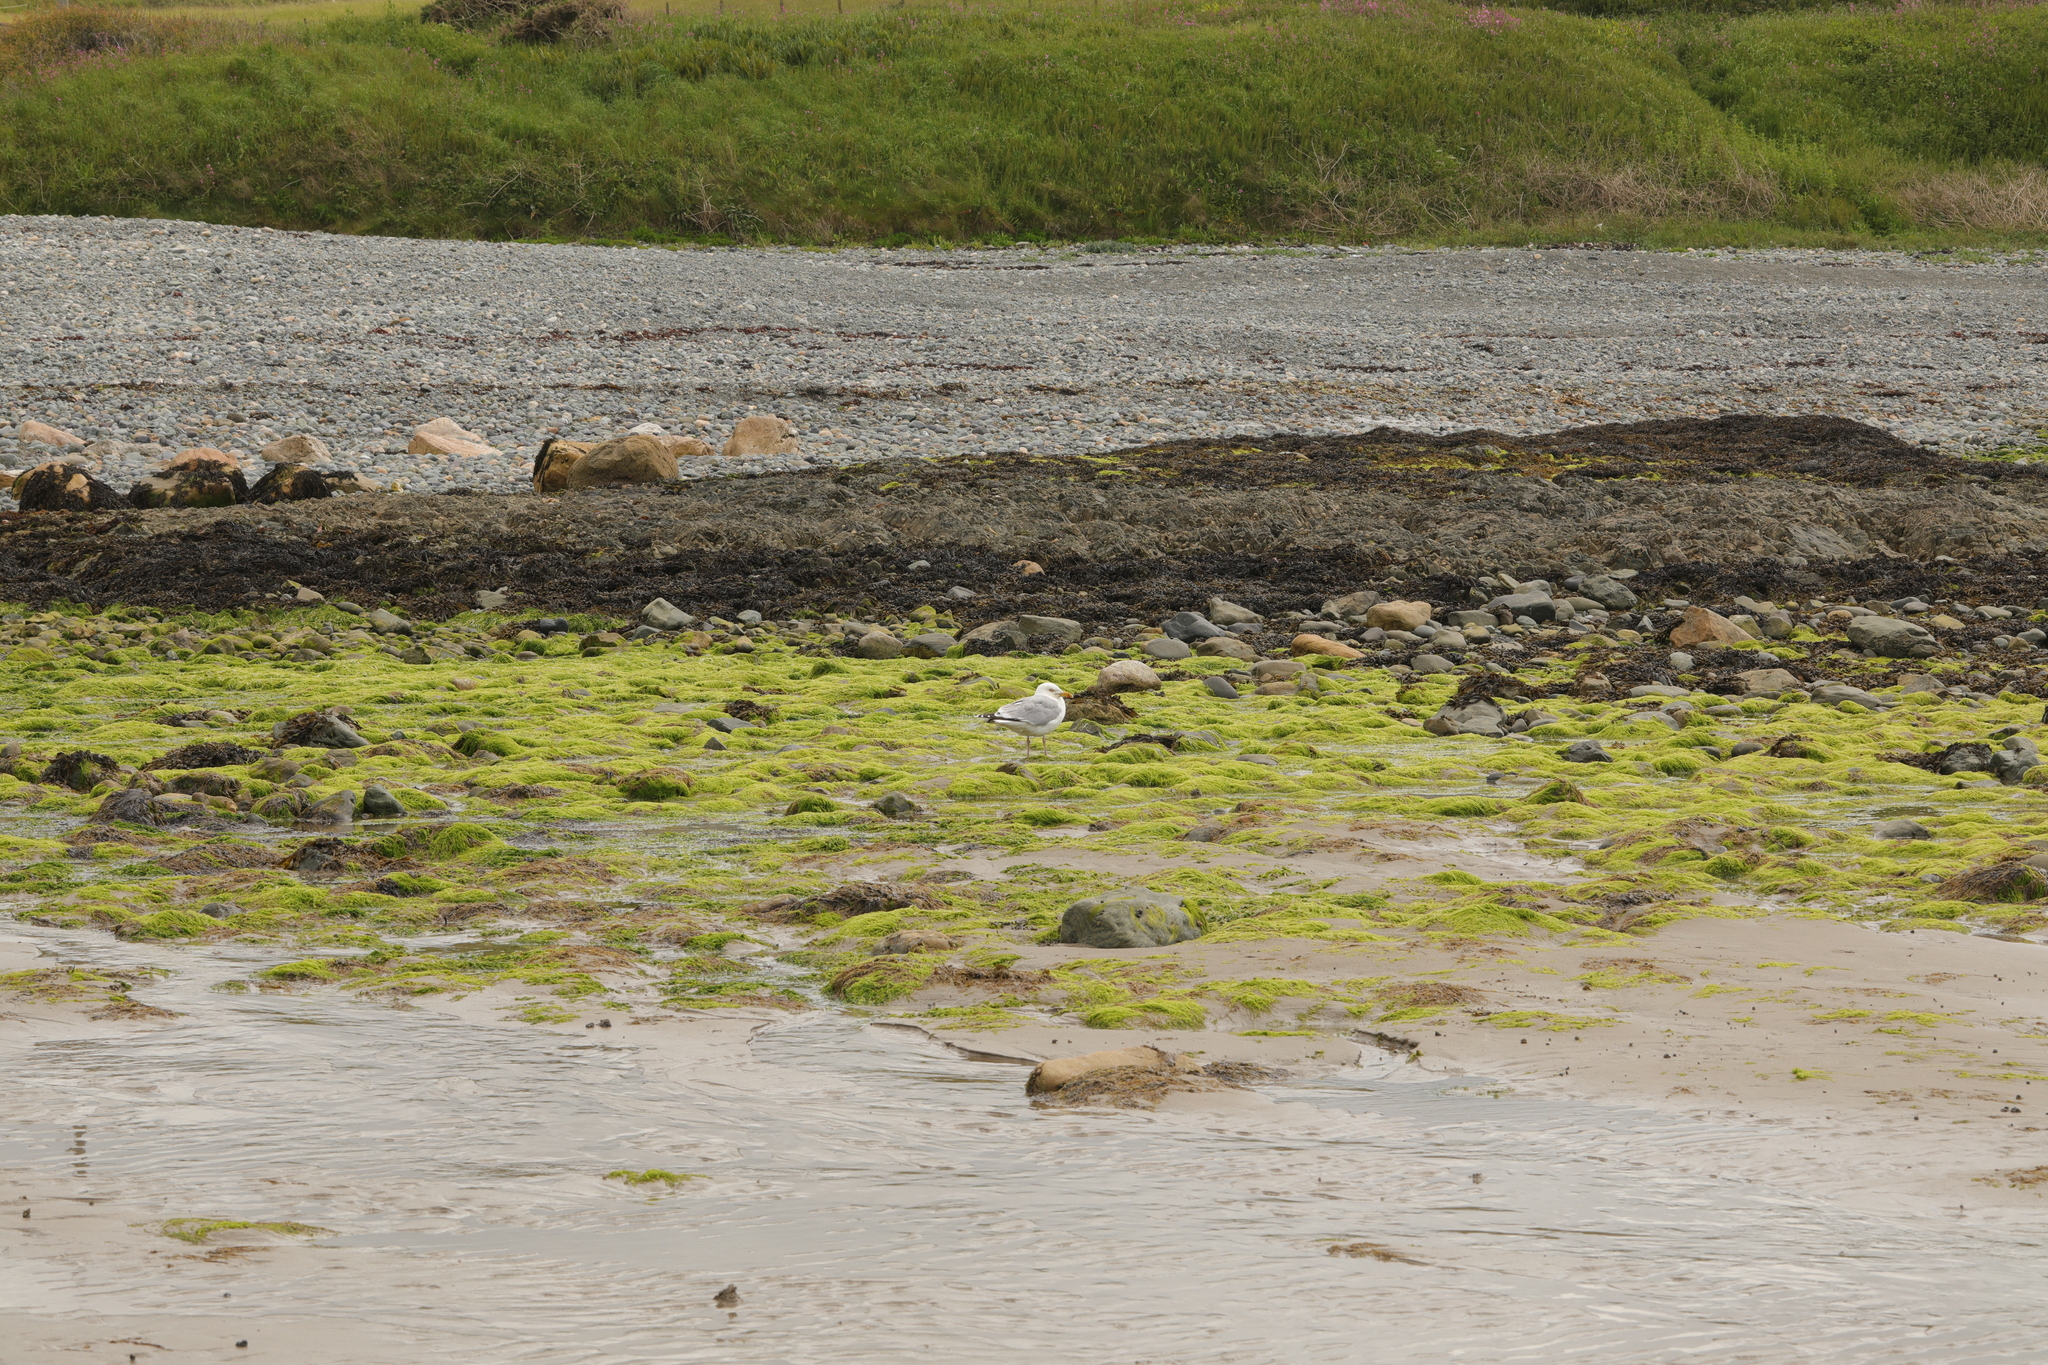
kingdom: Animalia
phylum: Chordata
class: Aves
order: Charadriiformes
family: Laridae
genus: Larus
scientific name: Larus argentatus
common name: Herring gull
